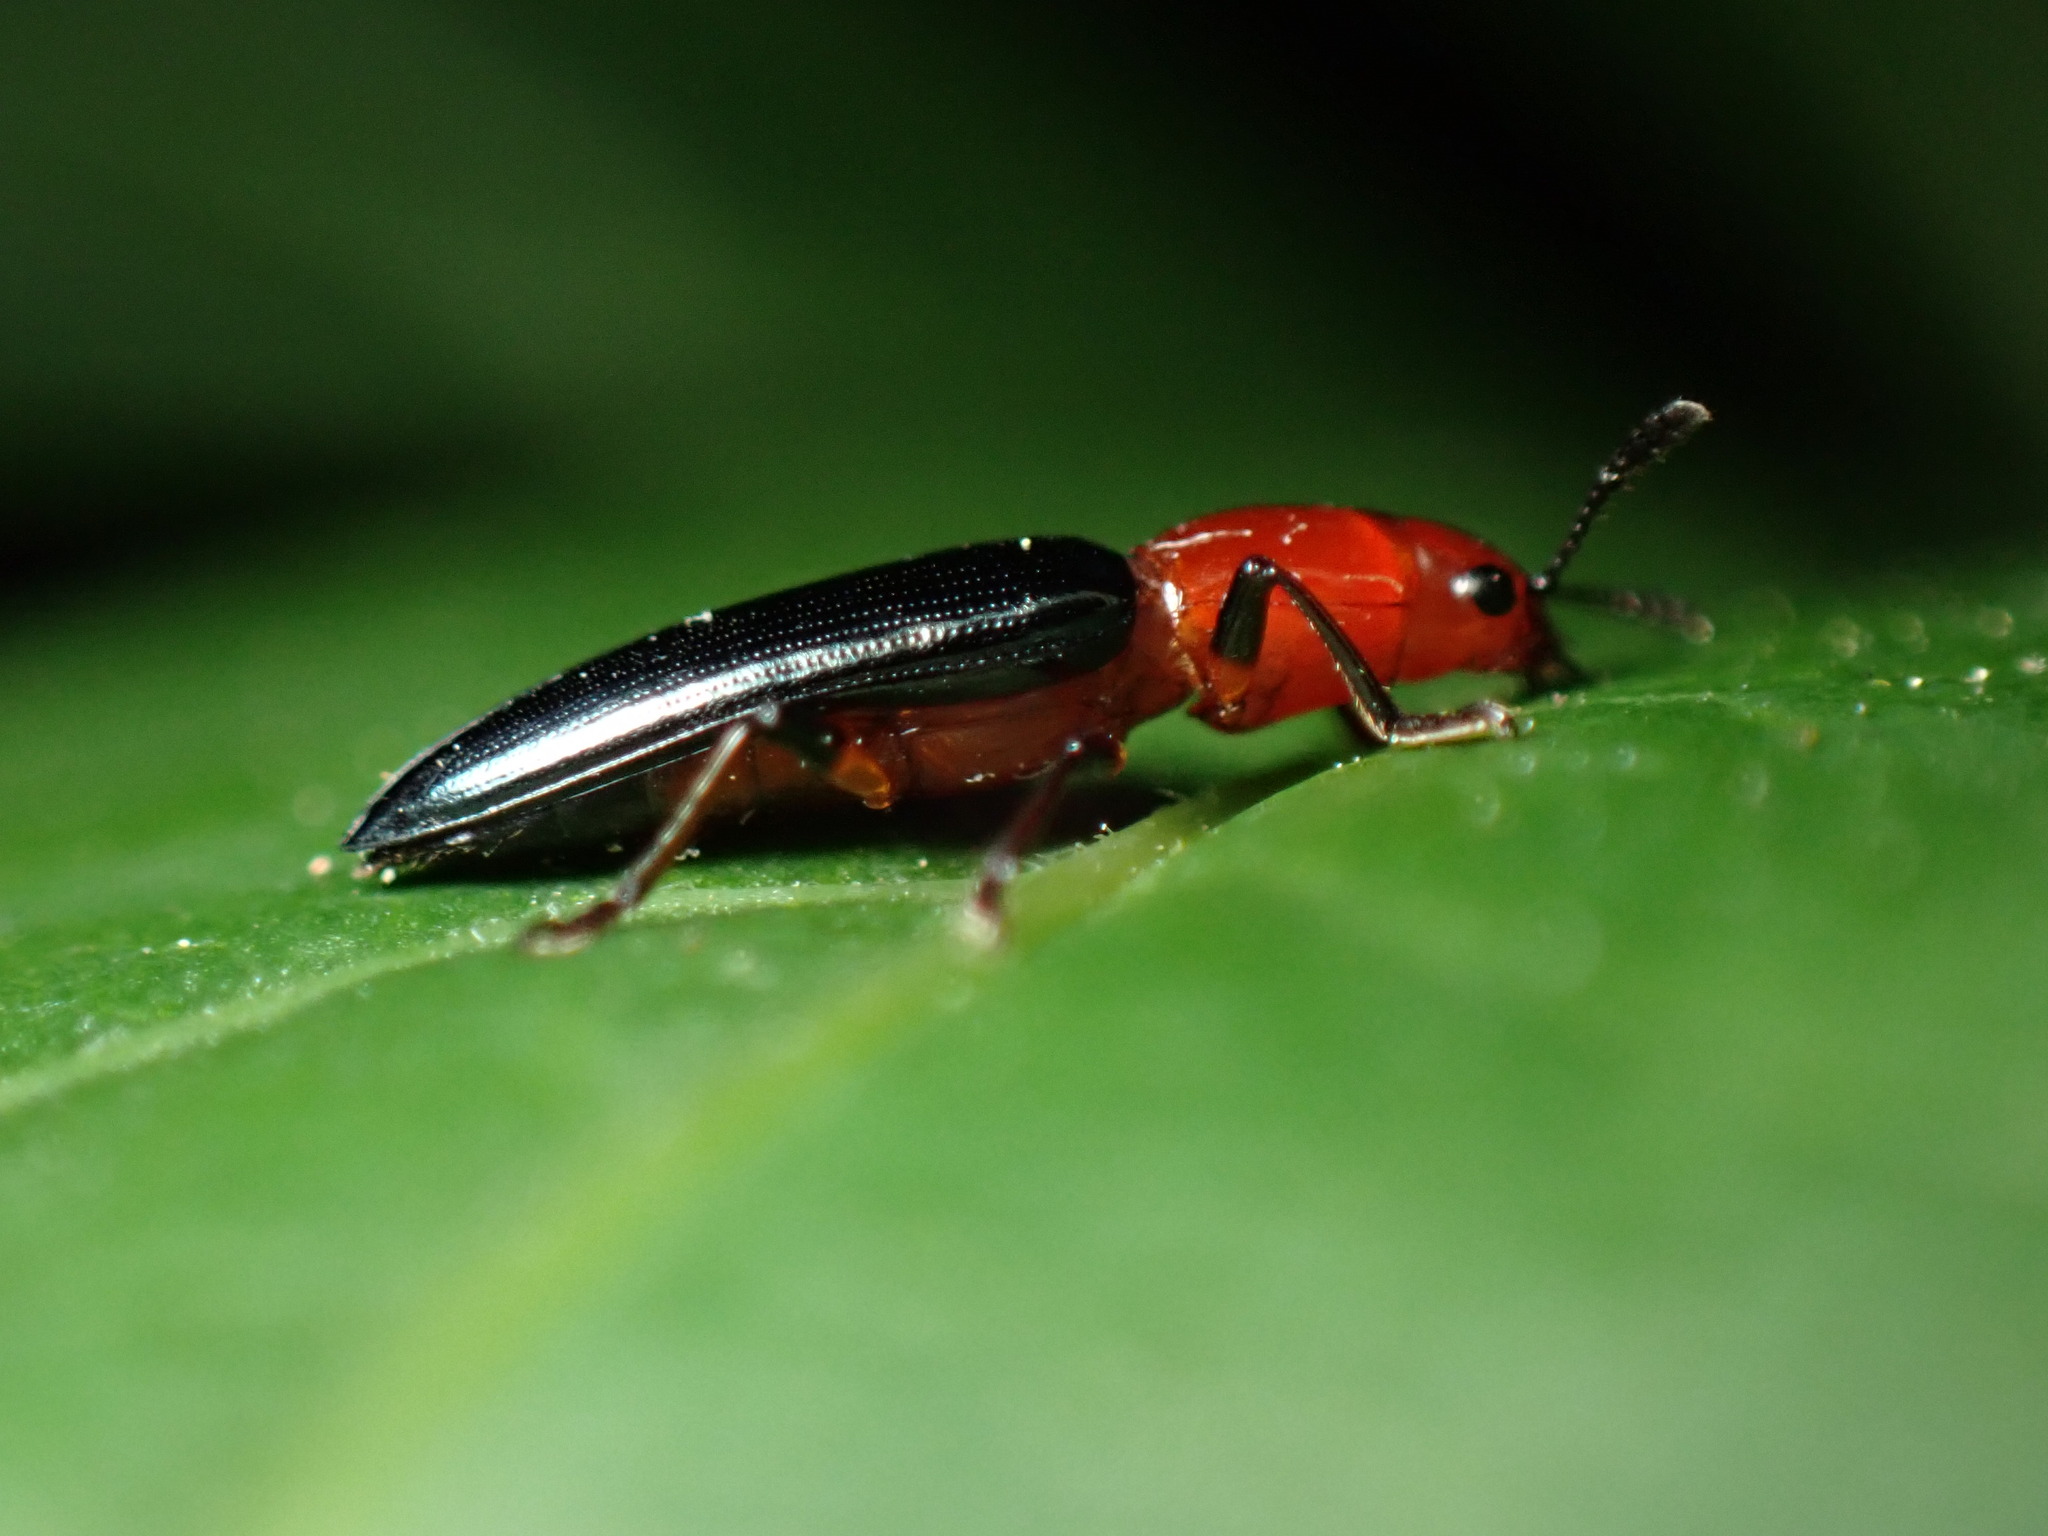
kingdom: Animalia
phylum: Arthropoda
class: Insecta
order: Coleoptera
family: Erotylidae
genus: Languria
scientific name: Languria mozardi
